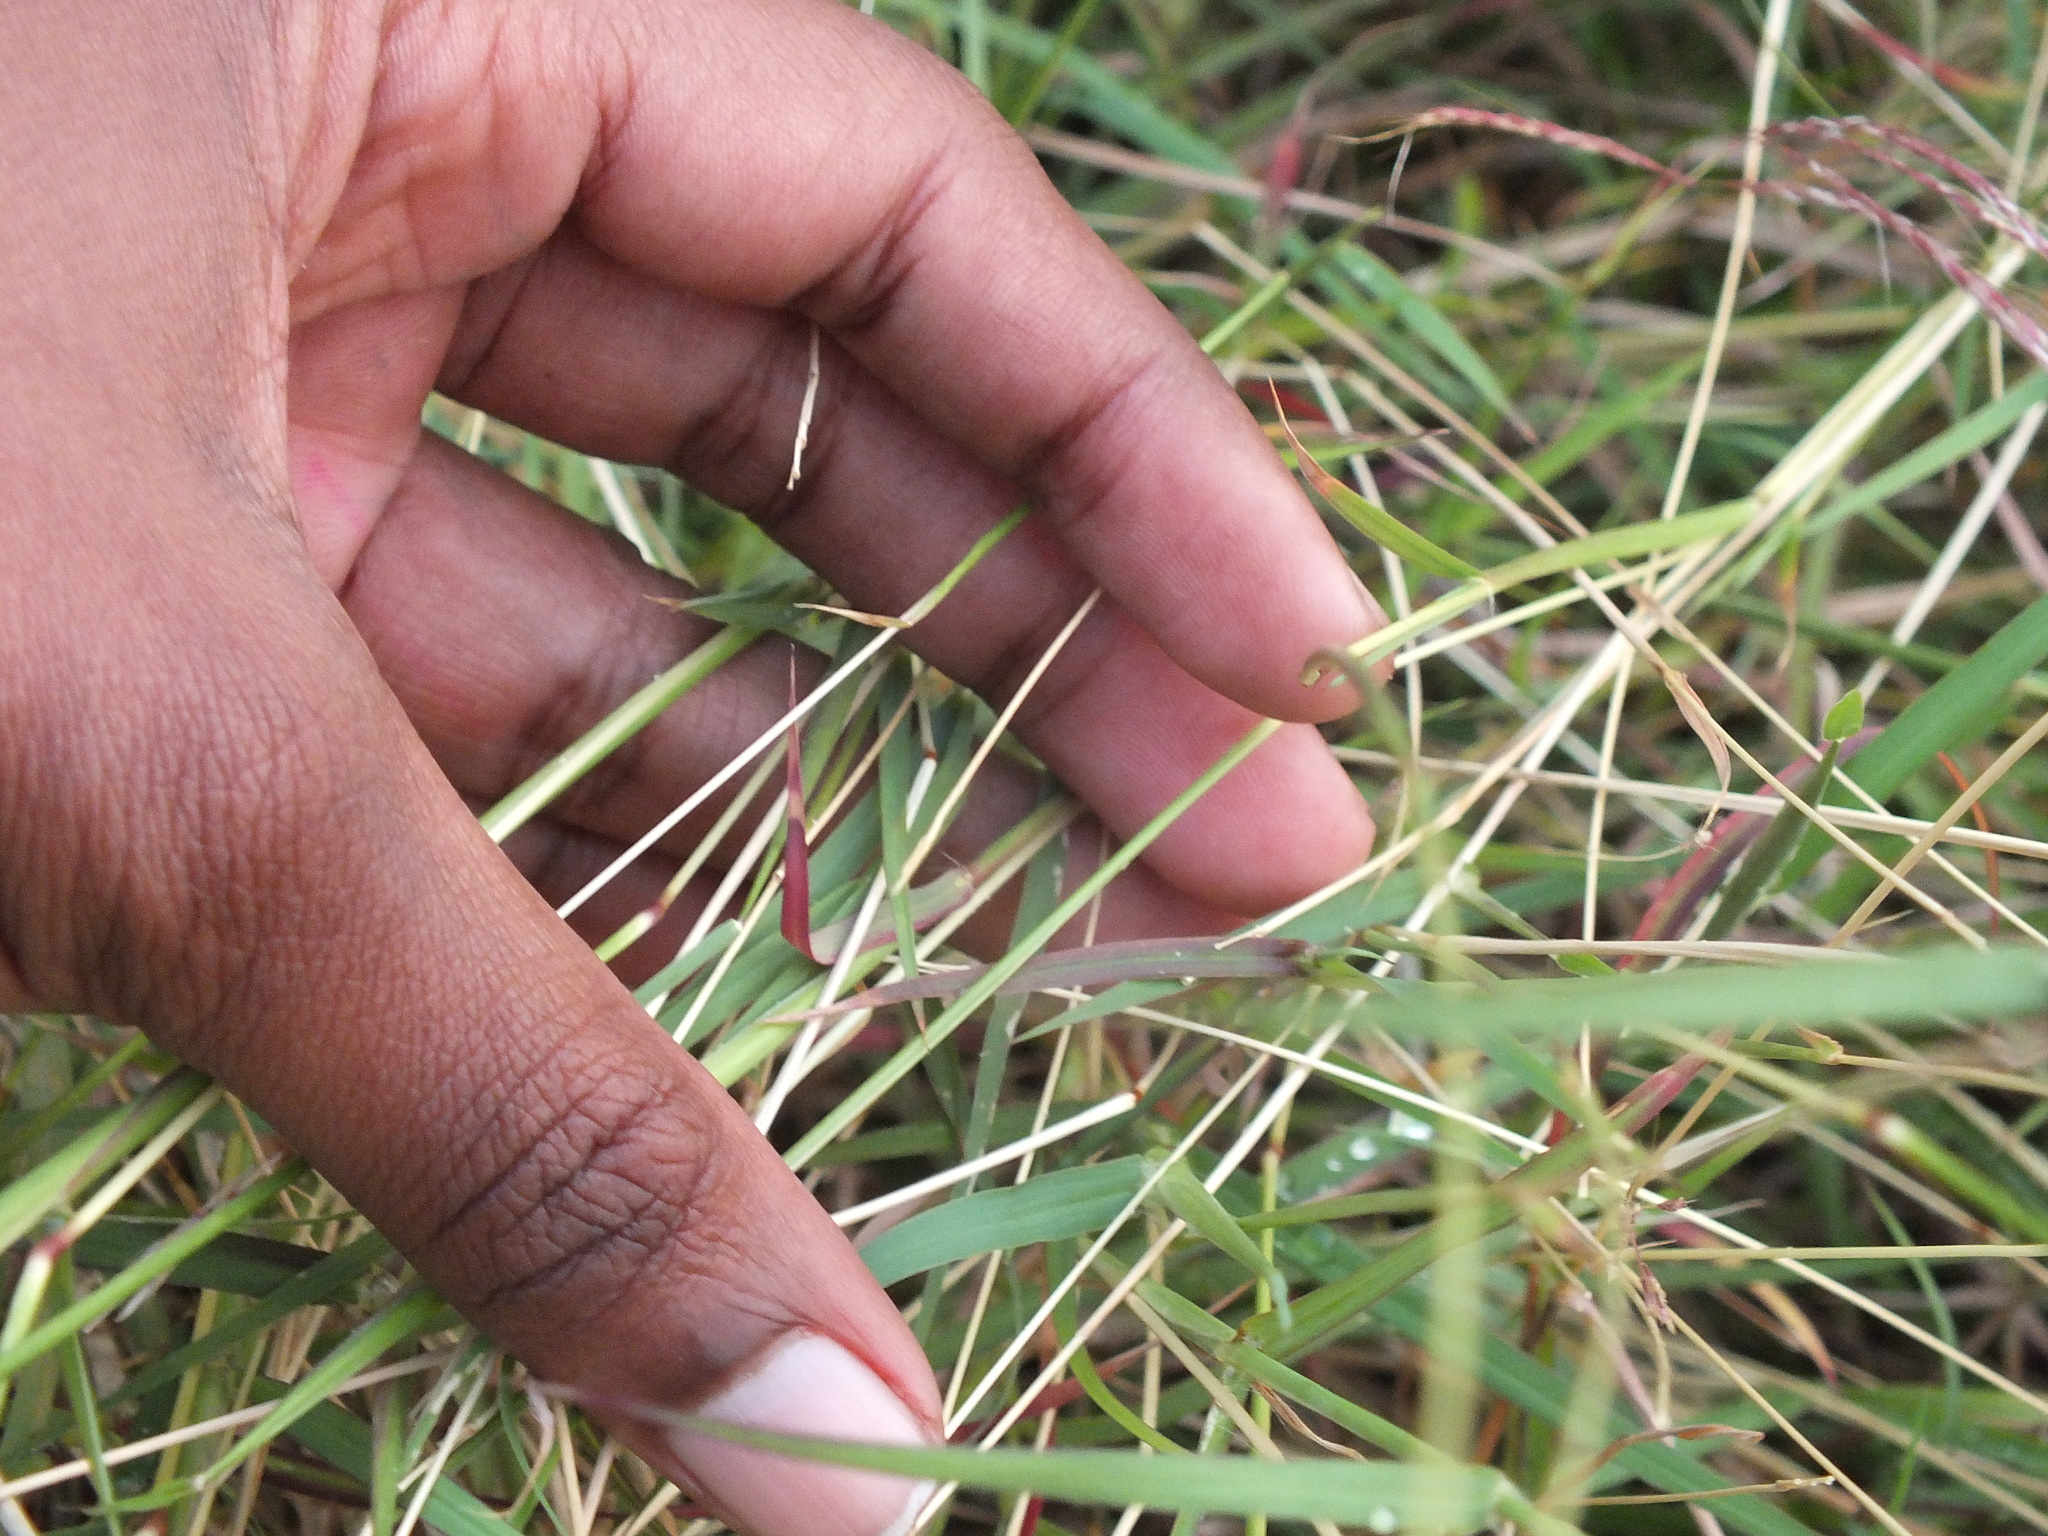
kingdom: Plantae
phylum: Tracheophyta
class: Liliopsida
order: Poales
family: Poaceae
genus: Bothriochloa
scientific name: Bothriochloa pertusa
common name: Pitted beardgrass
